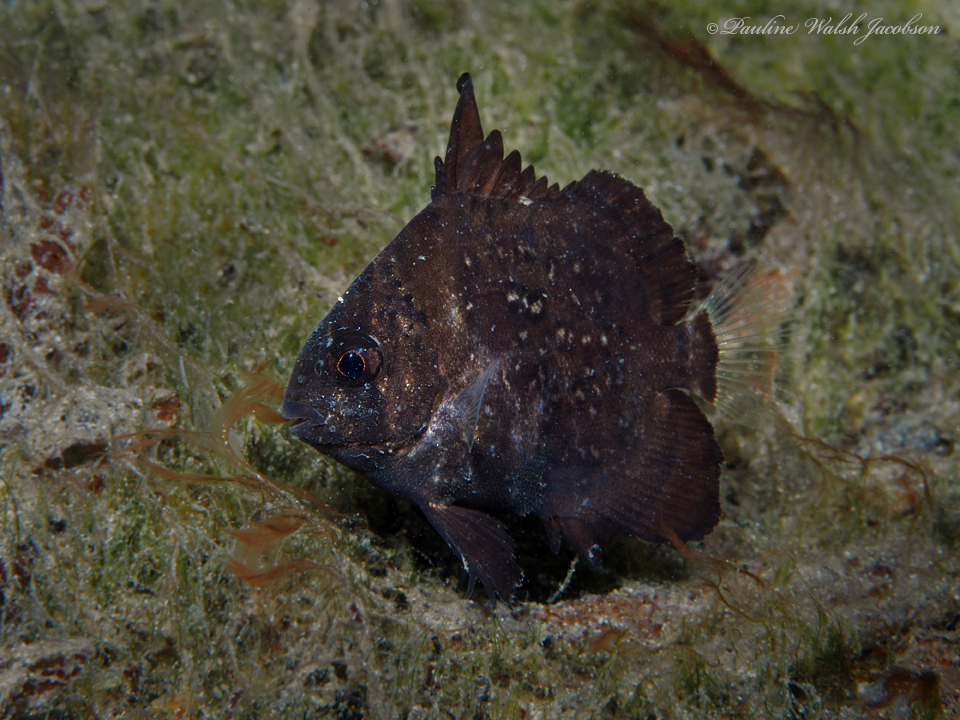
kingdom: Animalia
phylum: Chordata
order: Perciformes
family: Ephippidae
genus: Chaetodipterus
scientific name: Chaetodipterus faber
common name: Ocean cobbler
